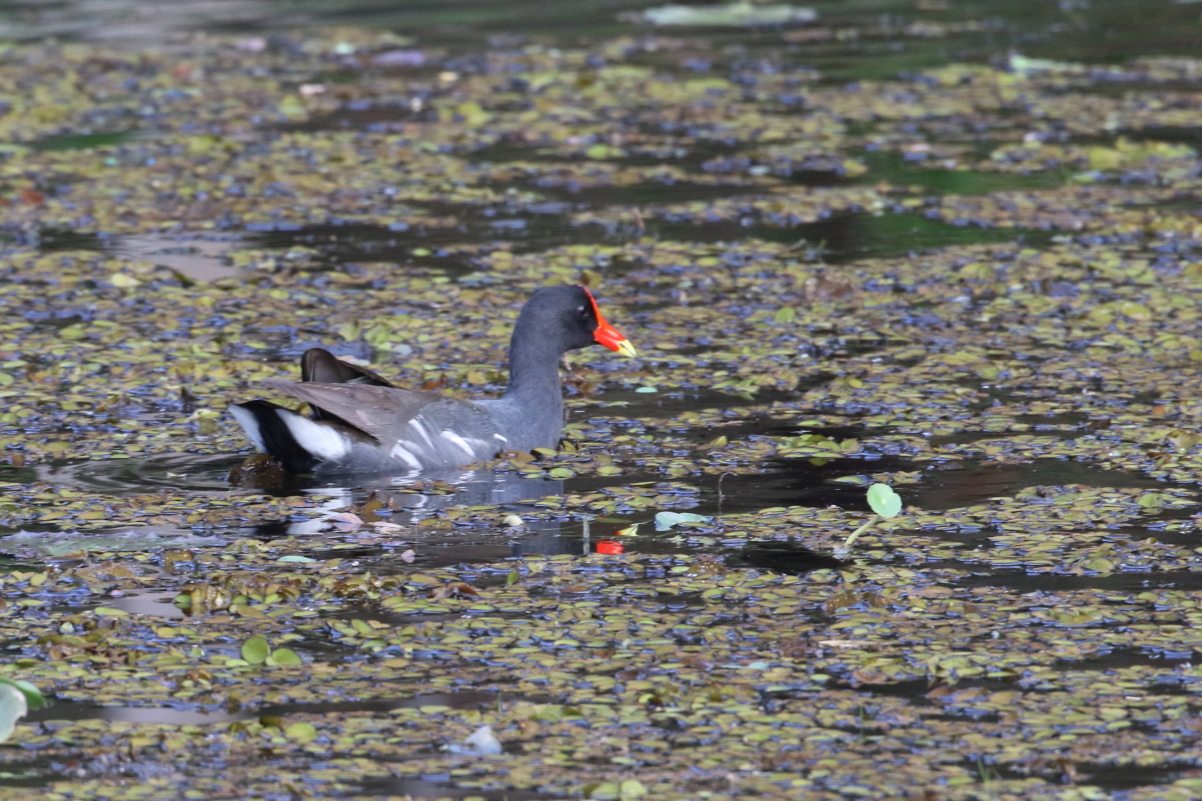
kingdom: Animalia
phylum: Chordata
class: Aves
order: Gruiformes
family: Rallidae
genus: Gallinula
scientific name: Gallinula chloropus
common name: Common moorhen
